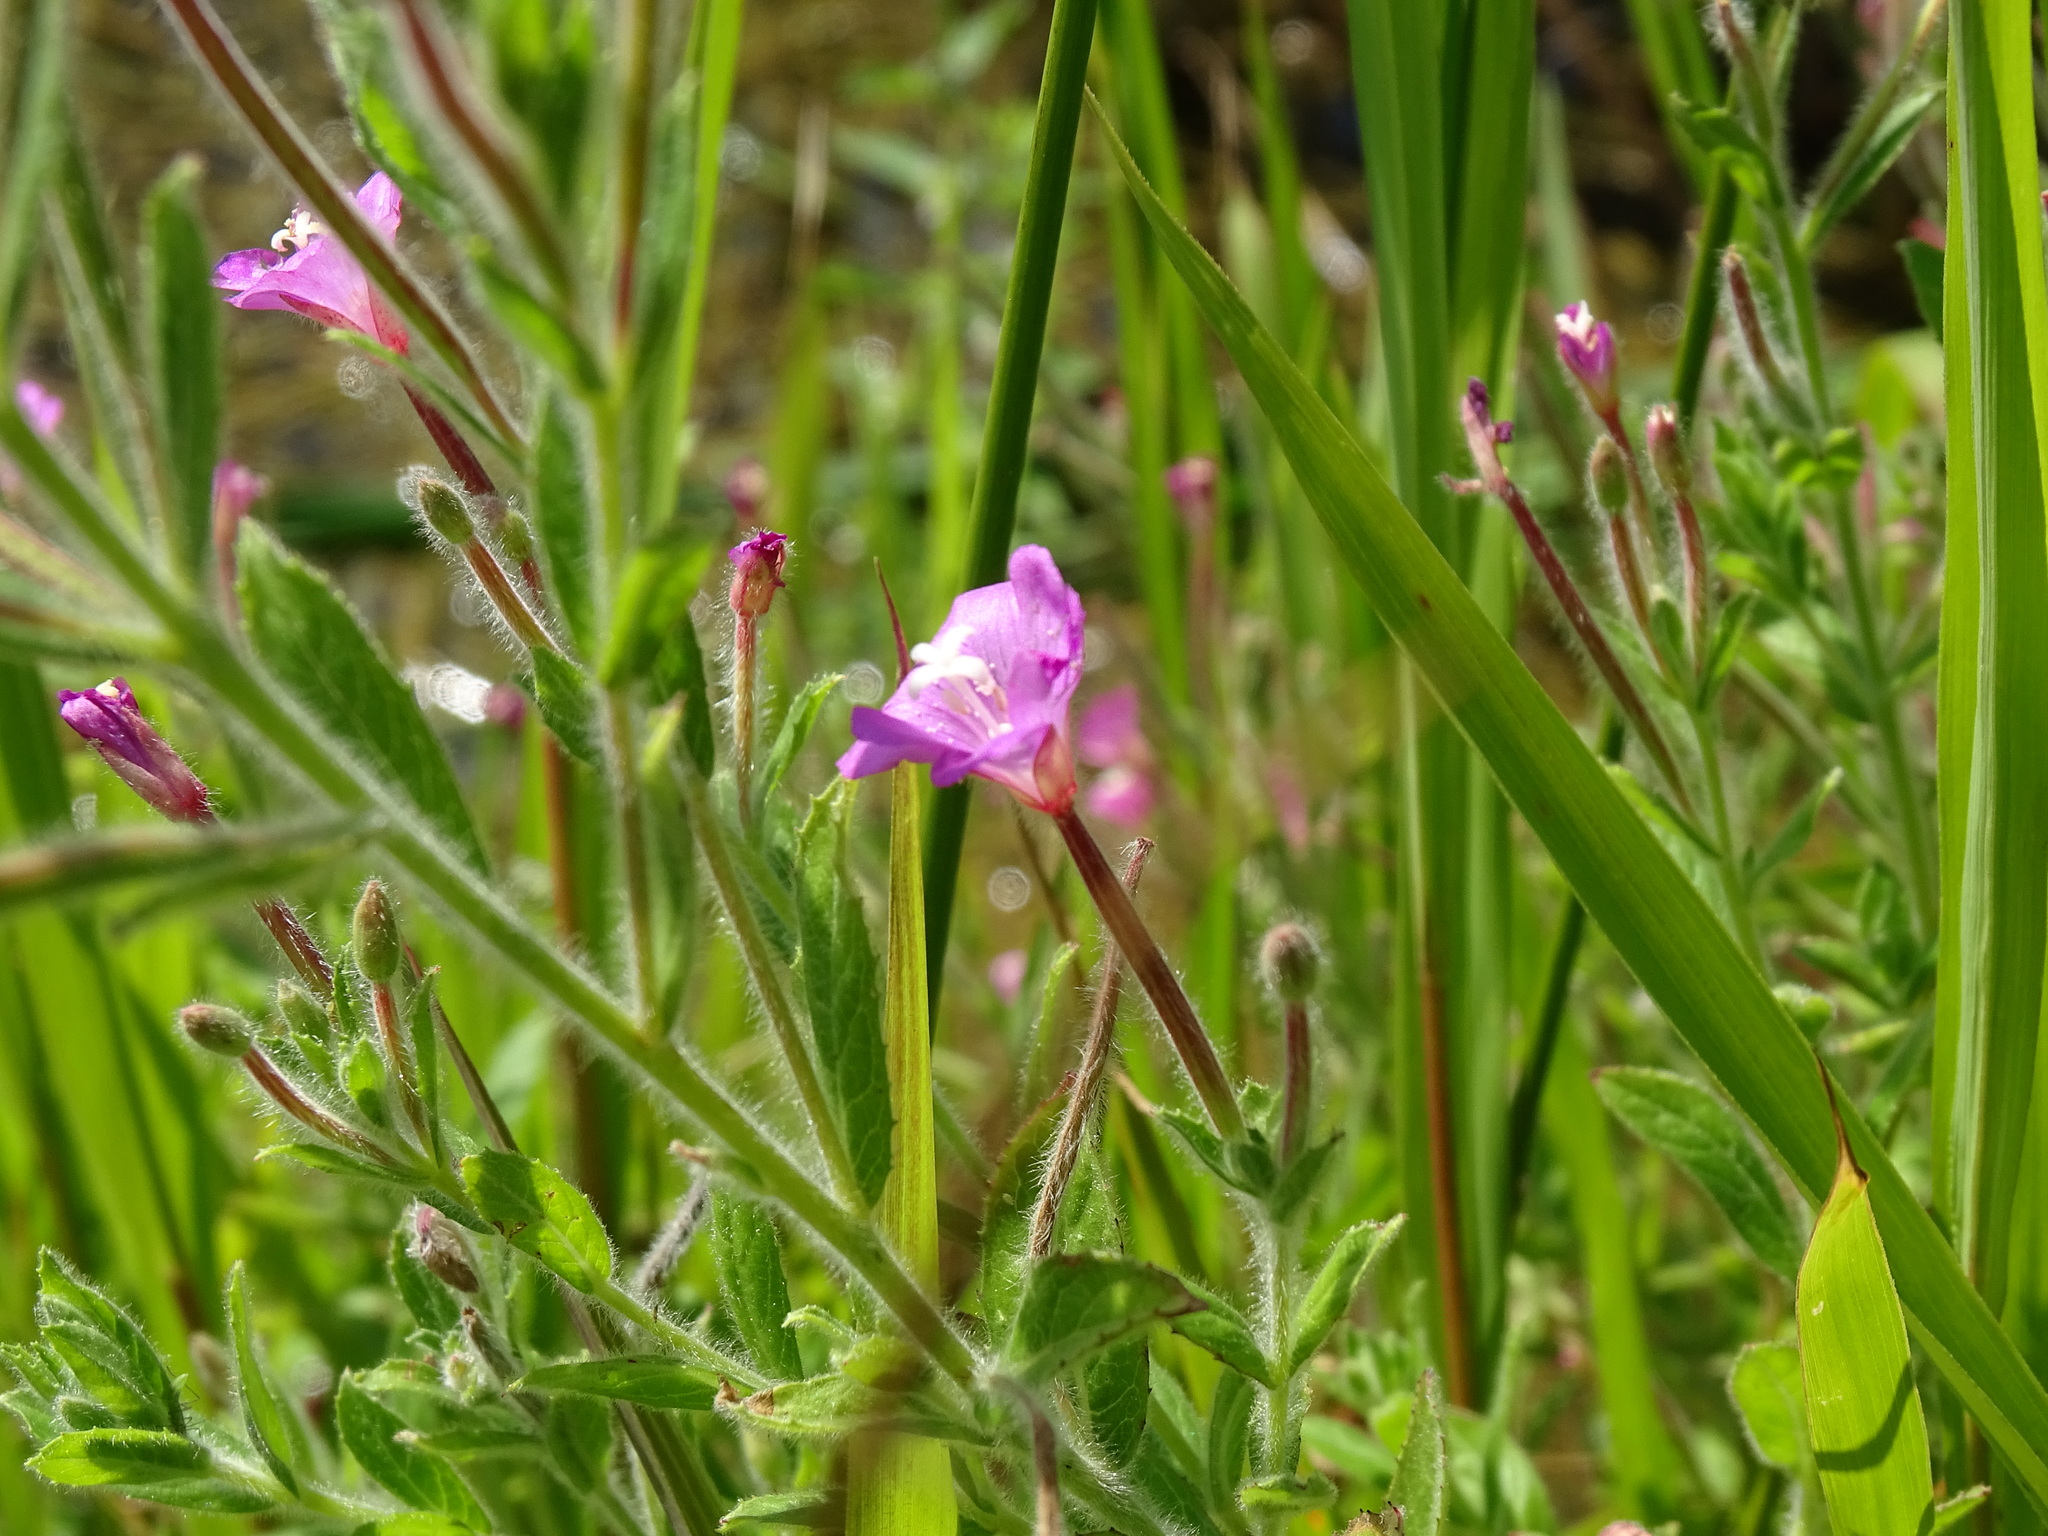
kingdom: Plantae
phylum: Tracheophyta
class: Magnoliopsida
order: Myrtales
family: Onagraceae
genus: Epilobium
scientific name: Epilobium hirsutum
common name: Great willowherb
